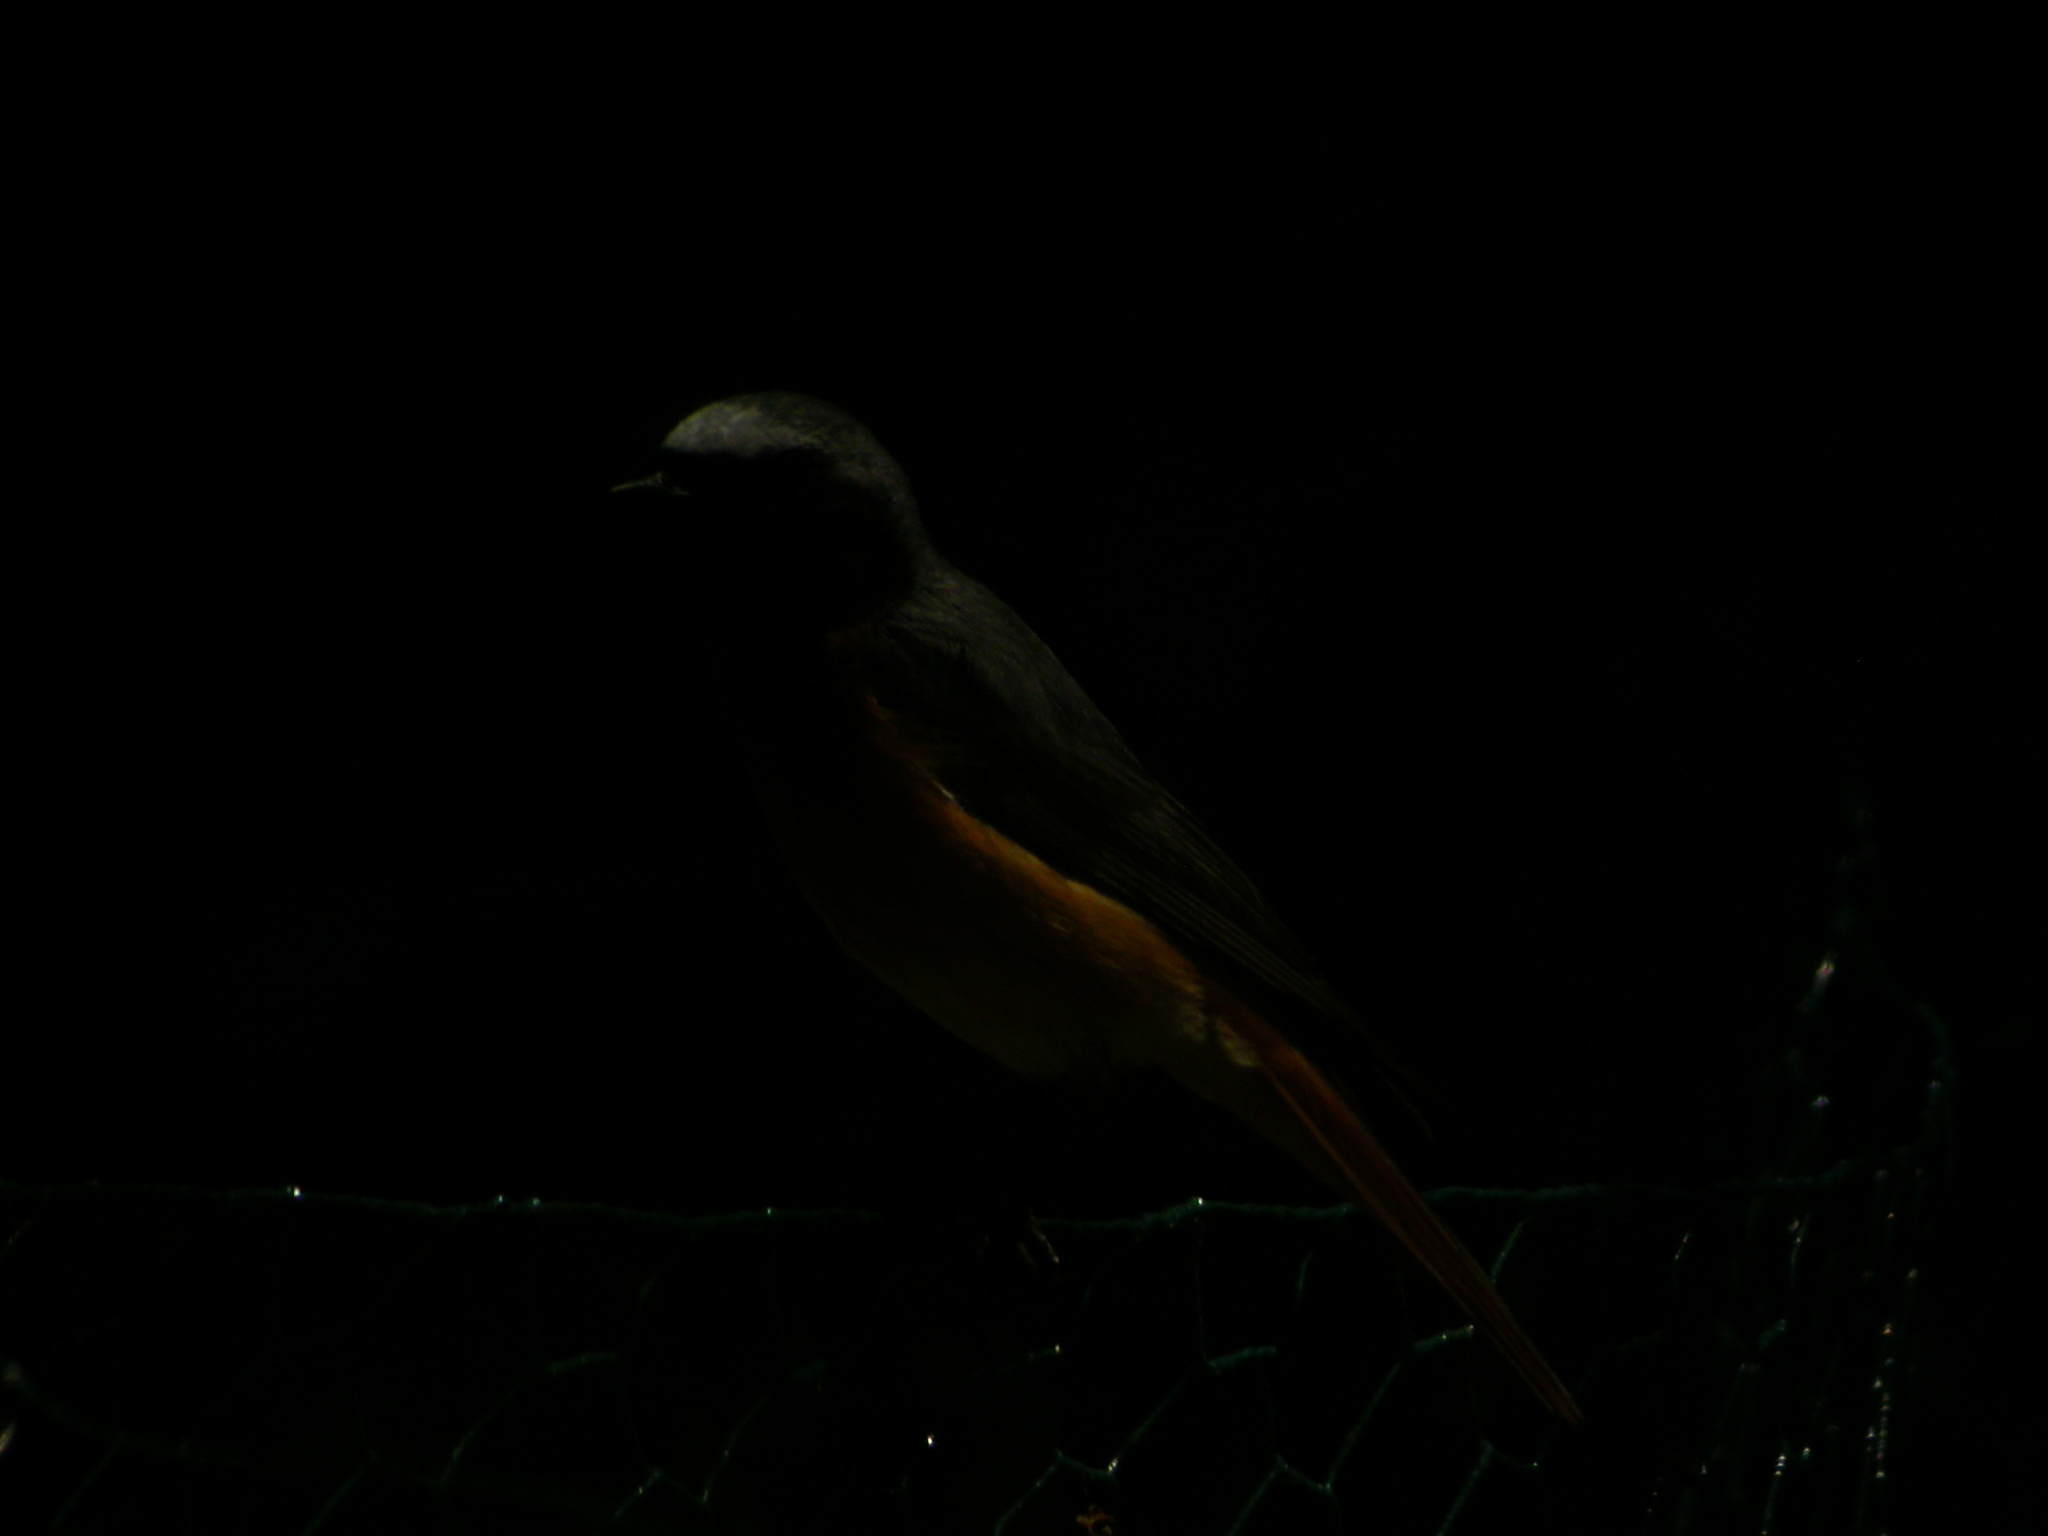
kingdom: Animalia
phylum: Chordata
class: Aves
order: Passeriformes
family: Muscicapidae
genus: Phoenicurus
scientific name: Phoenicurus phoenicurus
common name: Common redstart
